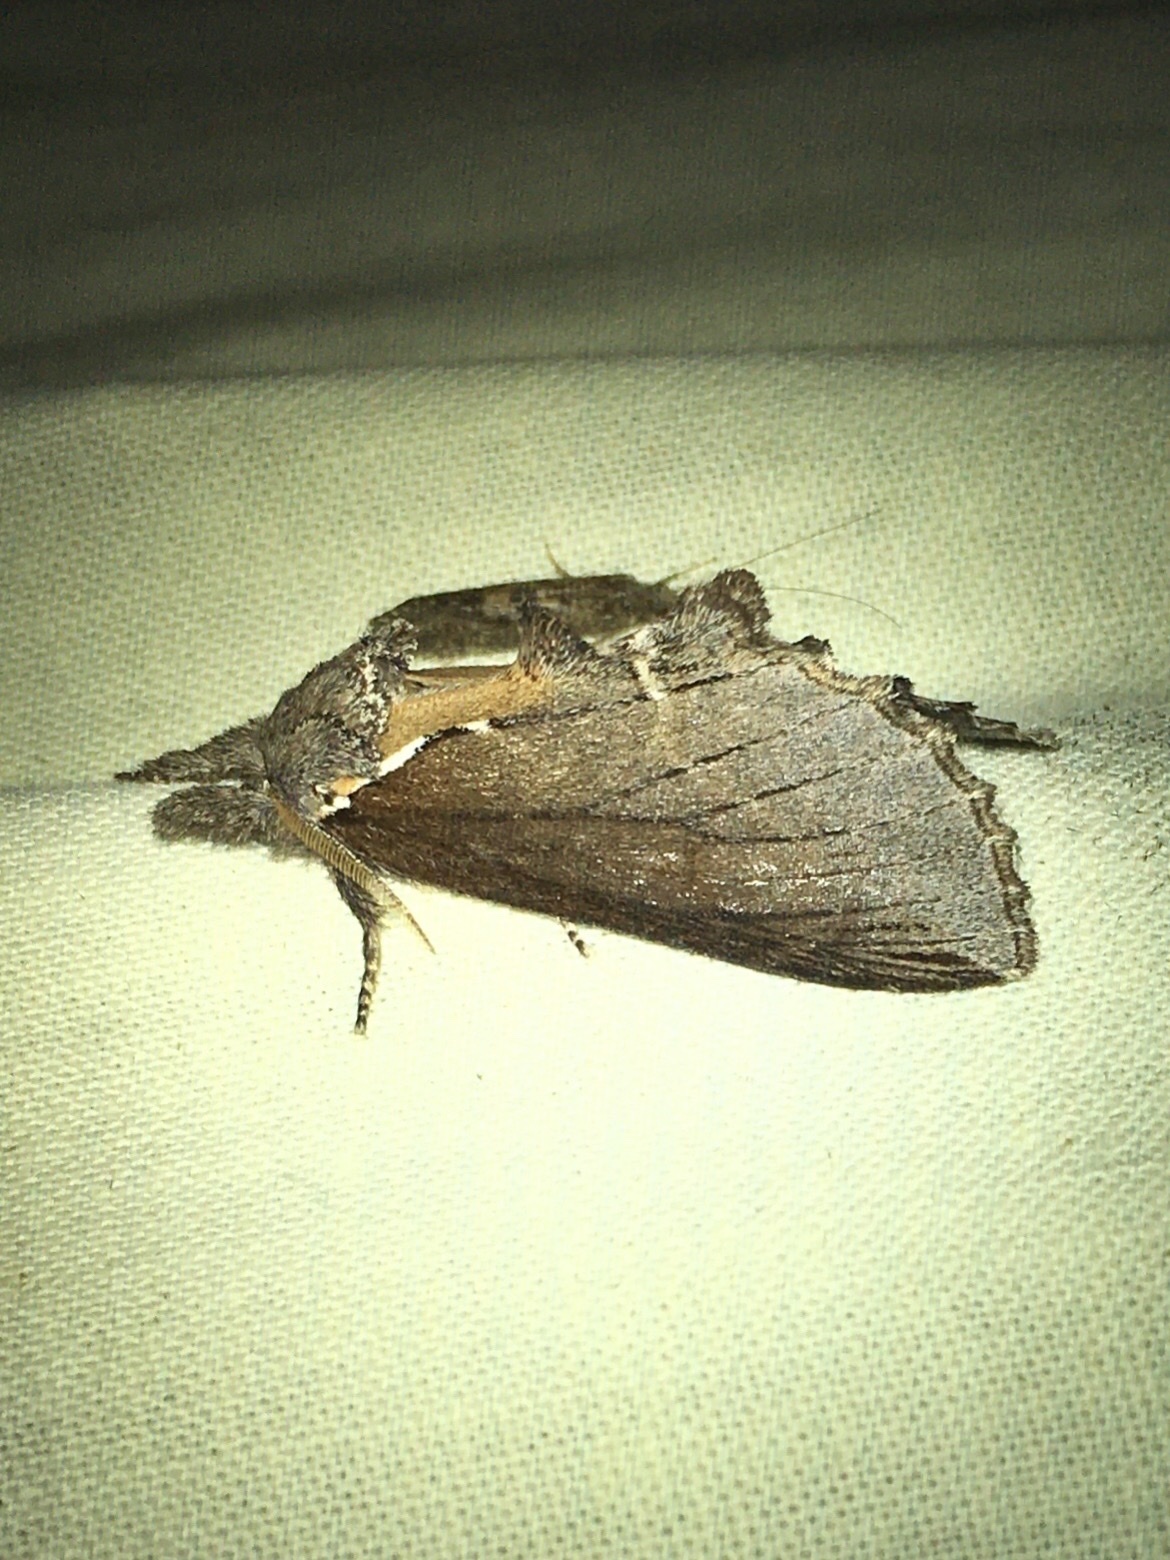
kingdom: Animalia
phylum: Arthropoda
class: Insecta
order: Lepidoptera
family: Notodontidae
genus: Pheosidea
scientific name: Pheosidea elegans
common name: Elegant prominent
